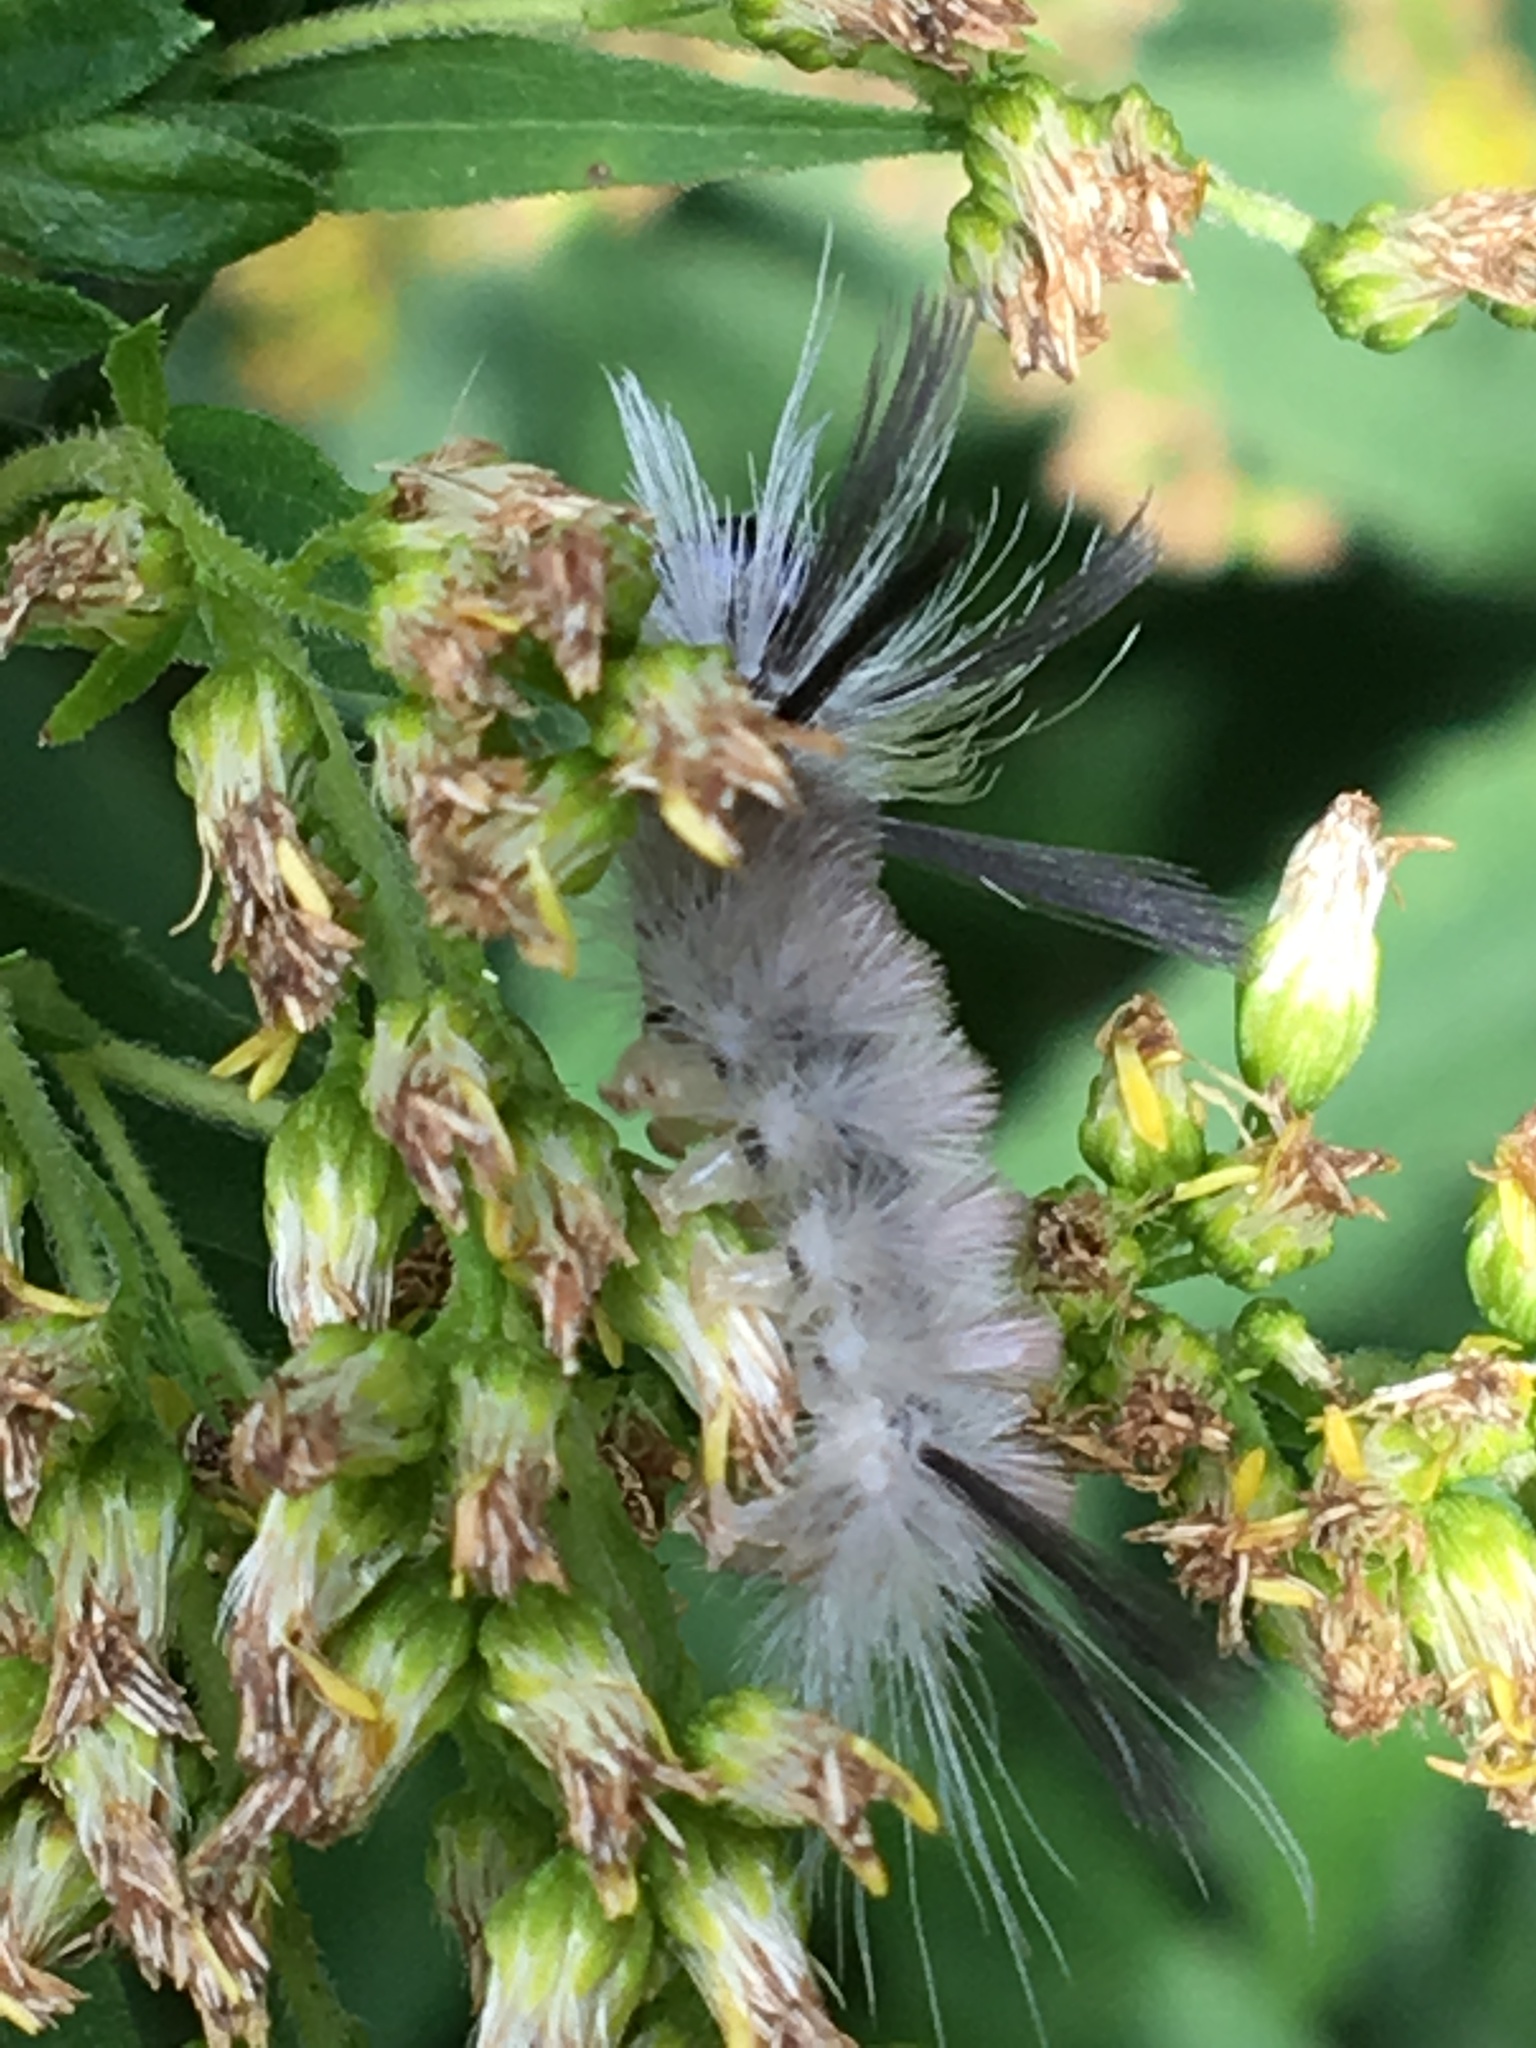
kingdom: Animalia
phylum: Arthropoda
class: Insecta
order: Lepidoptera
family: Erebidae
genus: Halysidota
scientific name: Halysidota tessellaris
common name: Banded tussock moth
